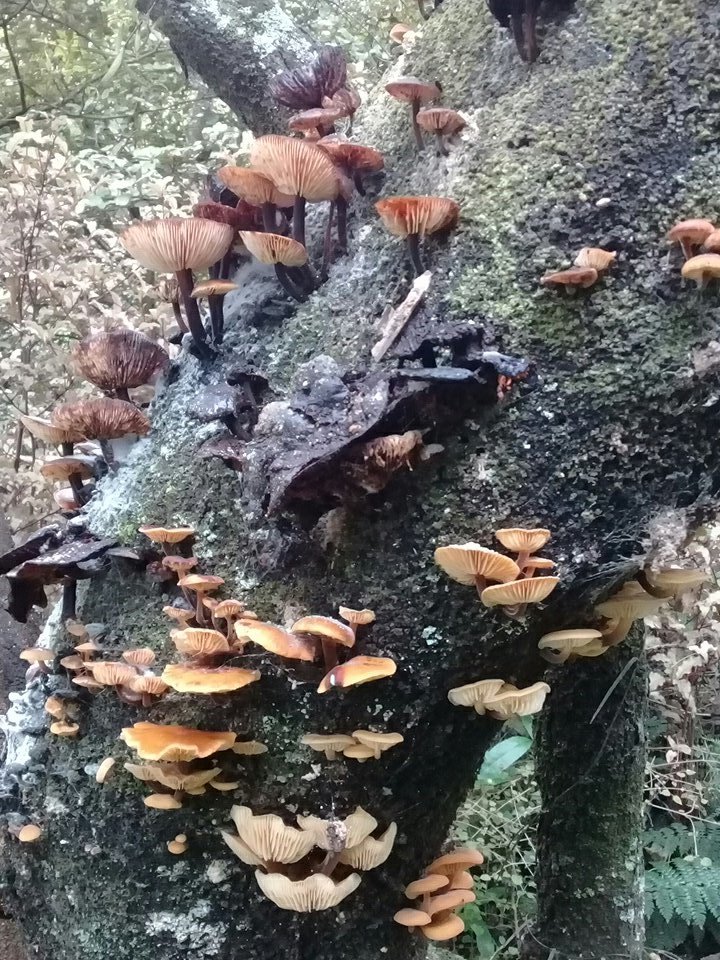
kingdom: Fungi
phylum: Basidiomycota
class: Agaricomycetes
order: Agaricales
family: Physalacriaceae
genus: Flammulina
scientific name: Flammulina velutipes
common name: Velvet shank
